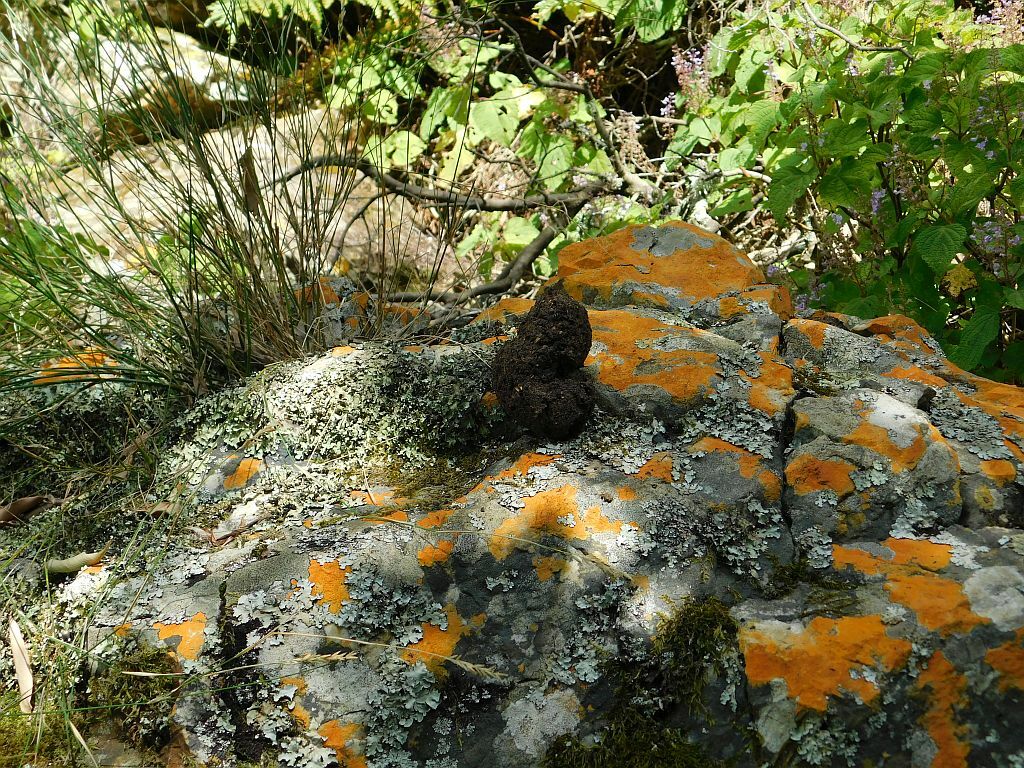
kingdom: Animalia
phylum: Chordata
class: Mammalia
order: Primates
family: Cercopithecidae
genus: Papio
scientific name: Papio ursinus
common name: Chacma baboon
